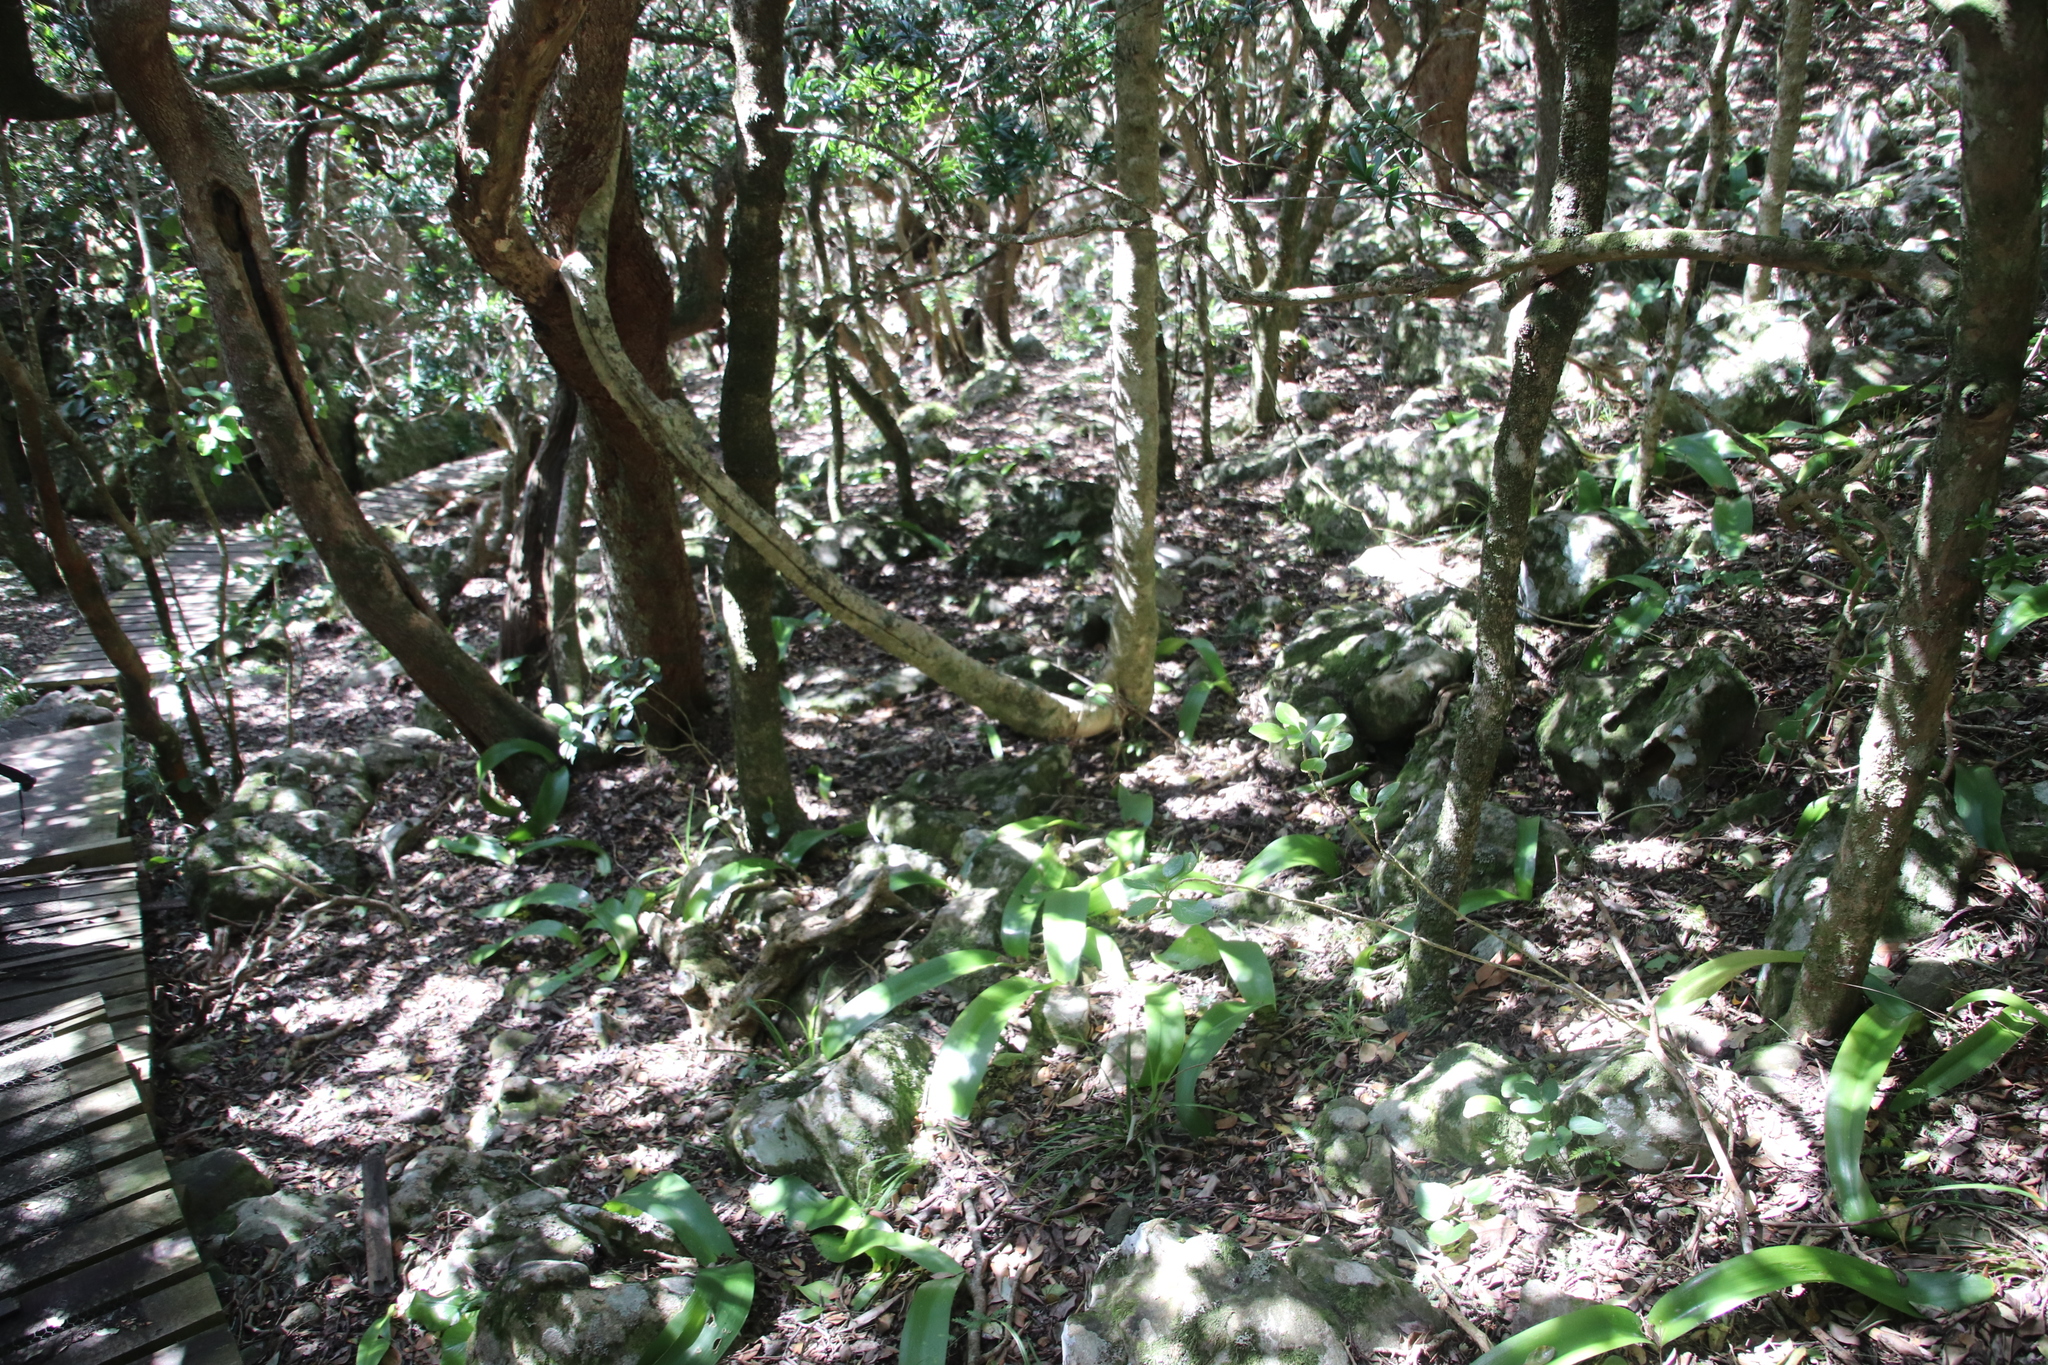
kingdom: Plantae
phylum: Tracheophyta
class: Liliopsida
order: Asparagales
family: Amaryllidaceae
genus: Haemanthus
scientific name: Haemanthus coccineus
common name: Cape-tulip
